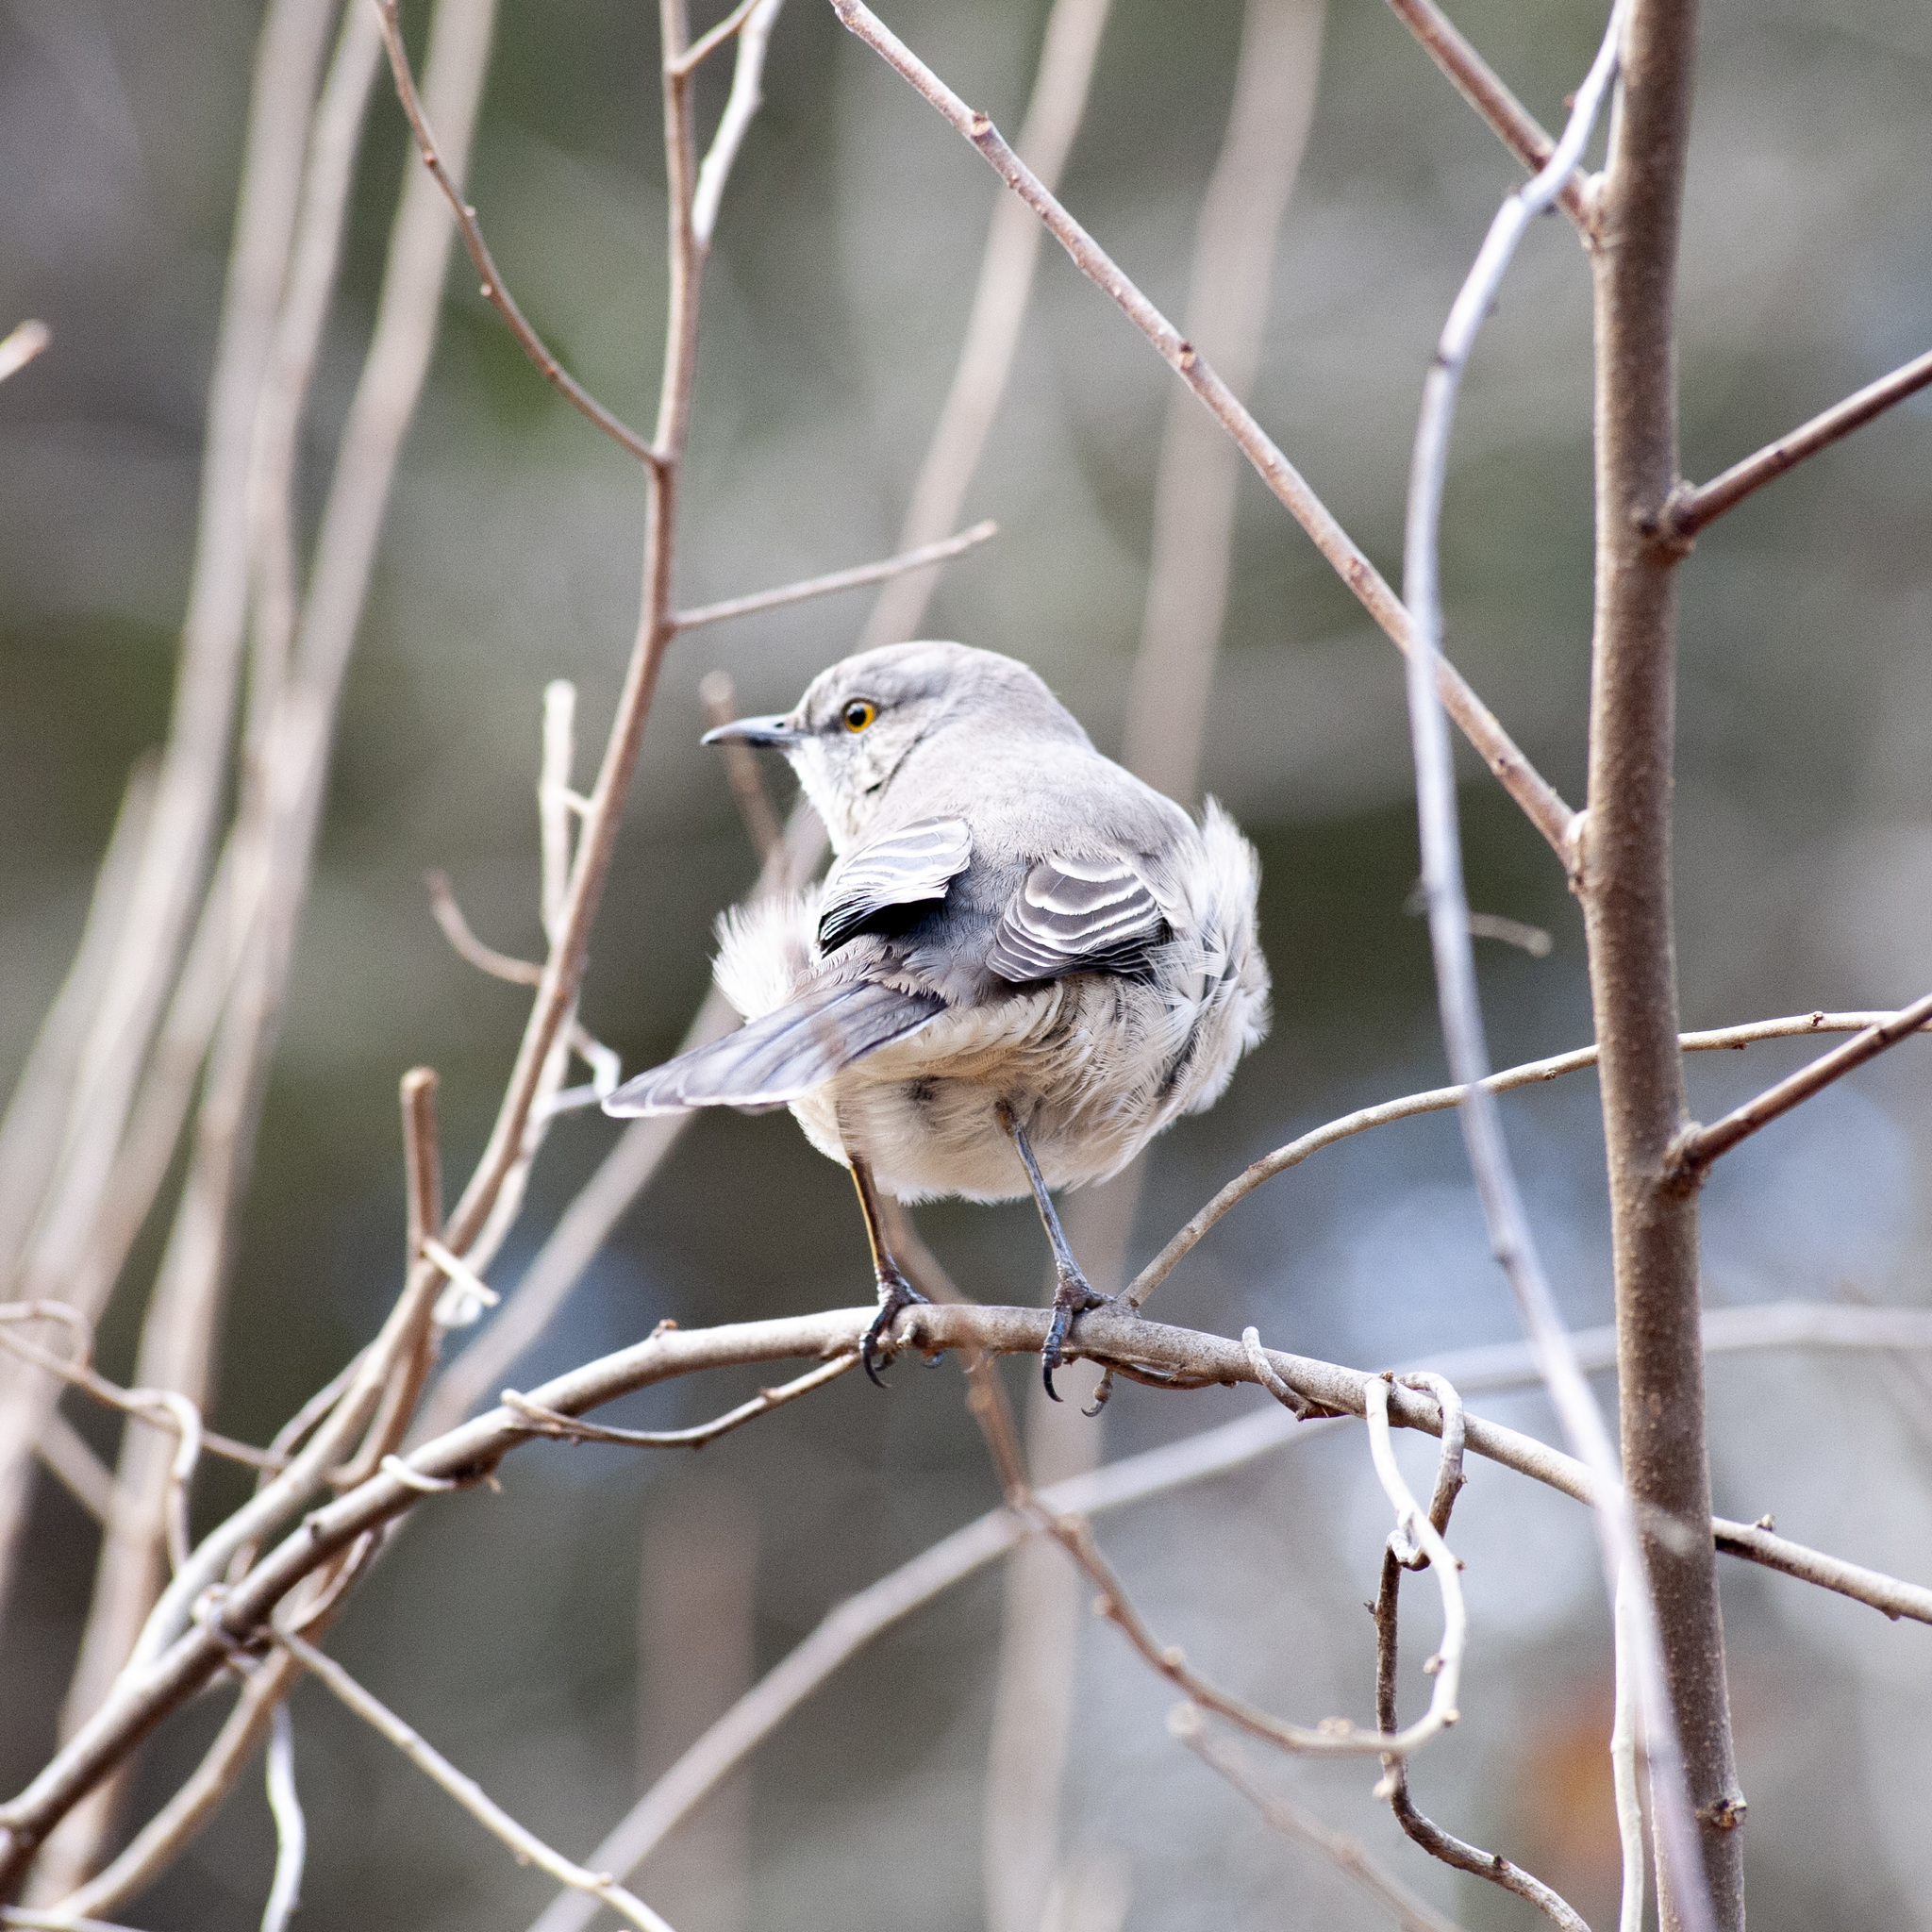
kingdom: Animalia
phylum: Chordata
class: Aves
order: Passeriformes
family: Mimidae
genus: Mimus
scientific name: Mimus polyglottos
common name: Northern mockingbird
